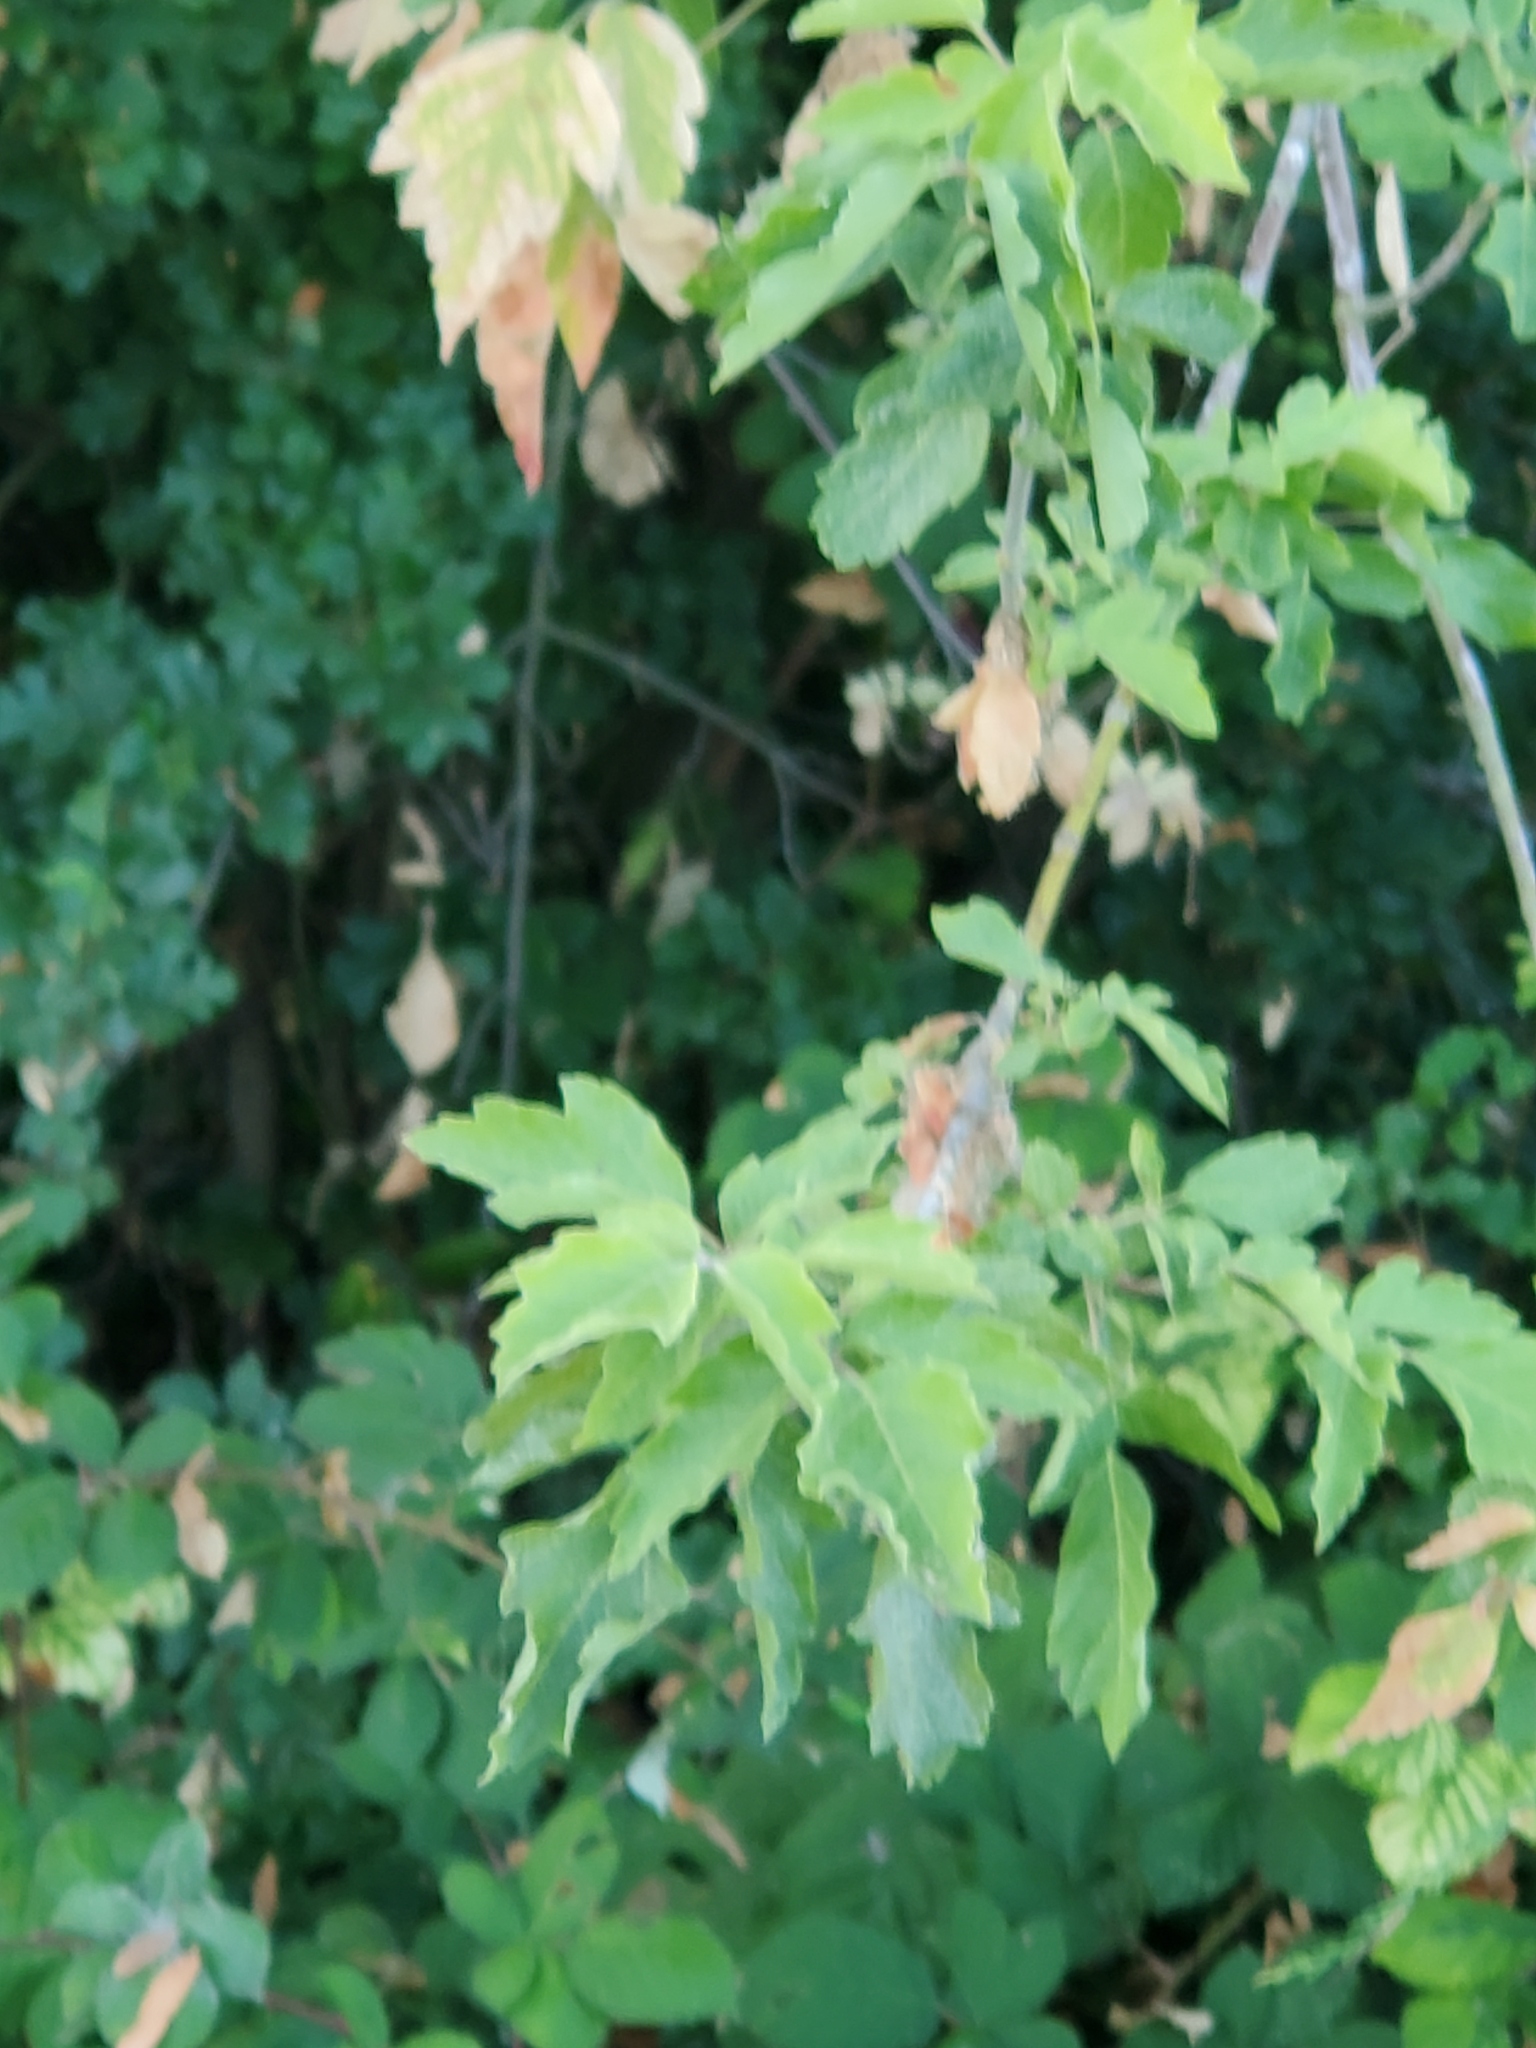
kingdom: Plantae
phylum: Tracheophyta
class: Magnoliopsida
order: Sapindales
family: Sapindaceae
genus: Acer
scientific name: Acer negundo
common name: Ashleaf maple
